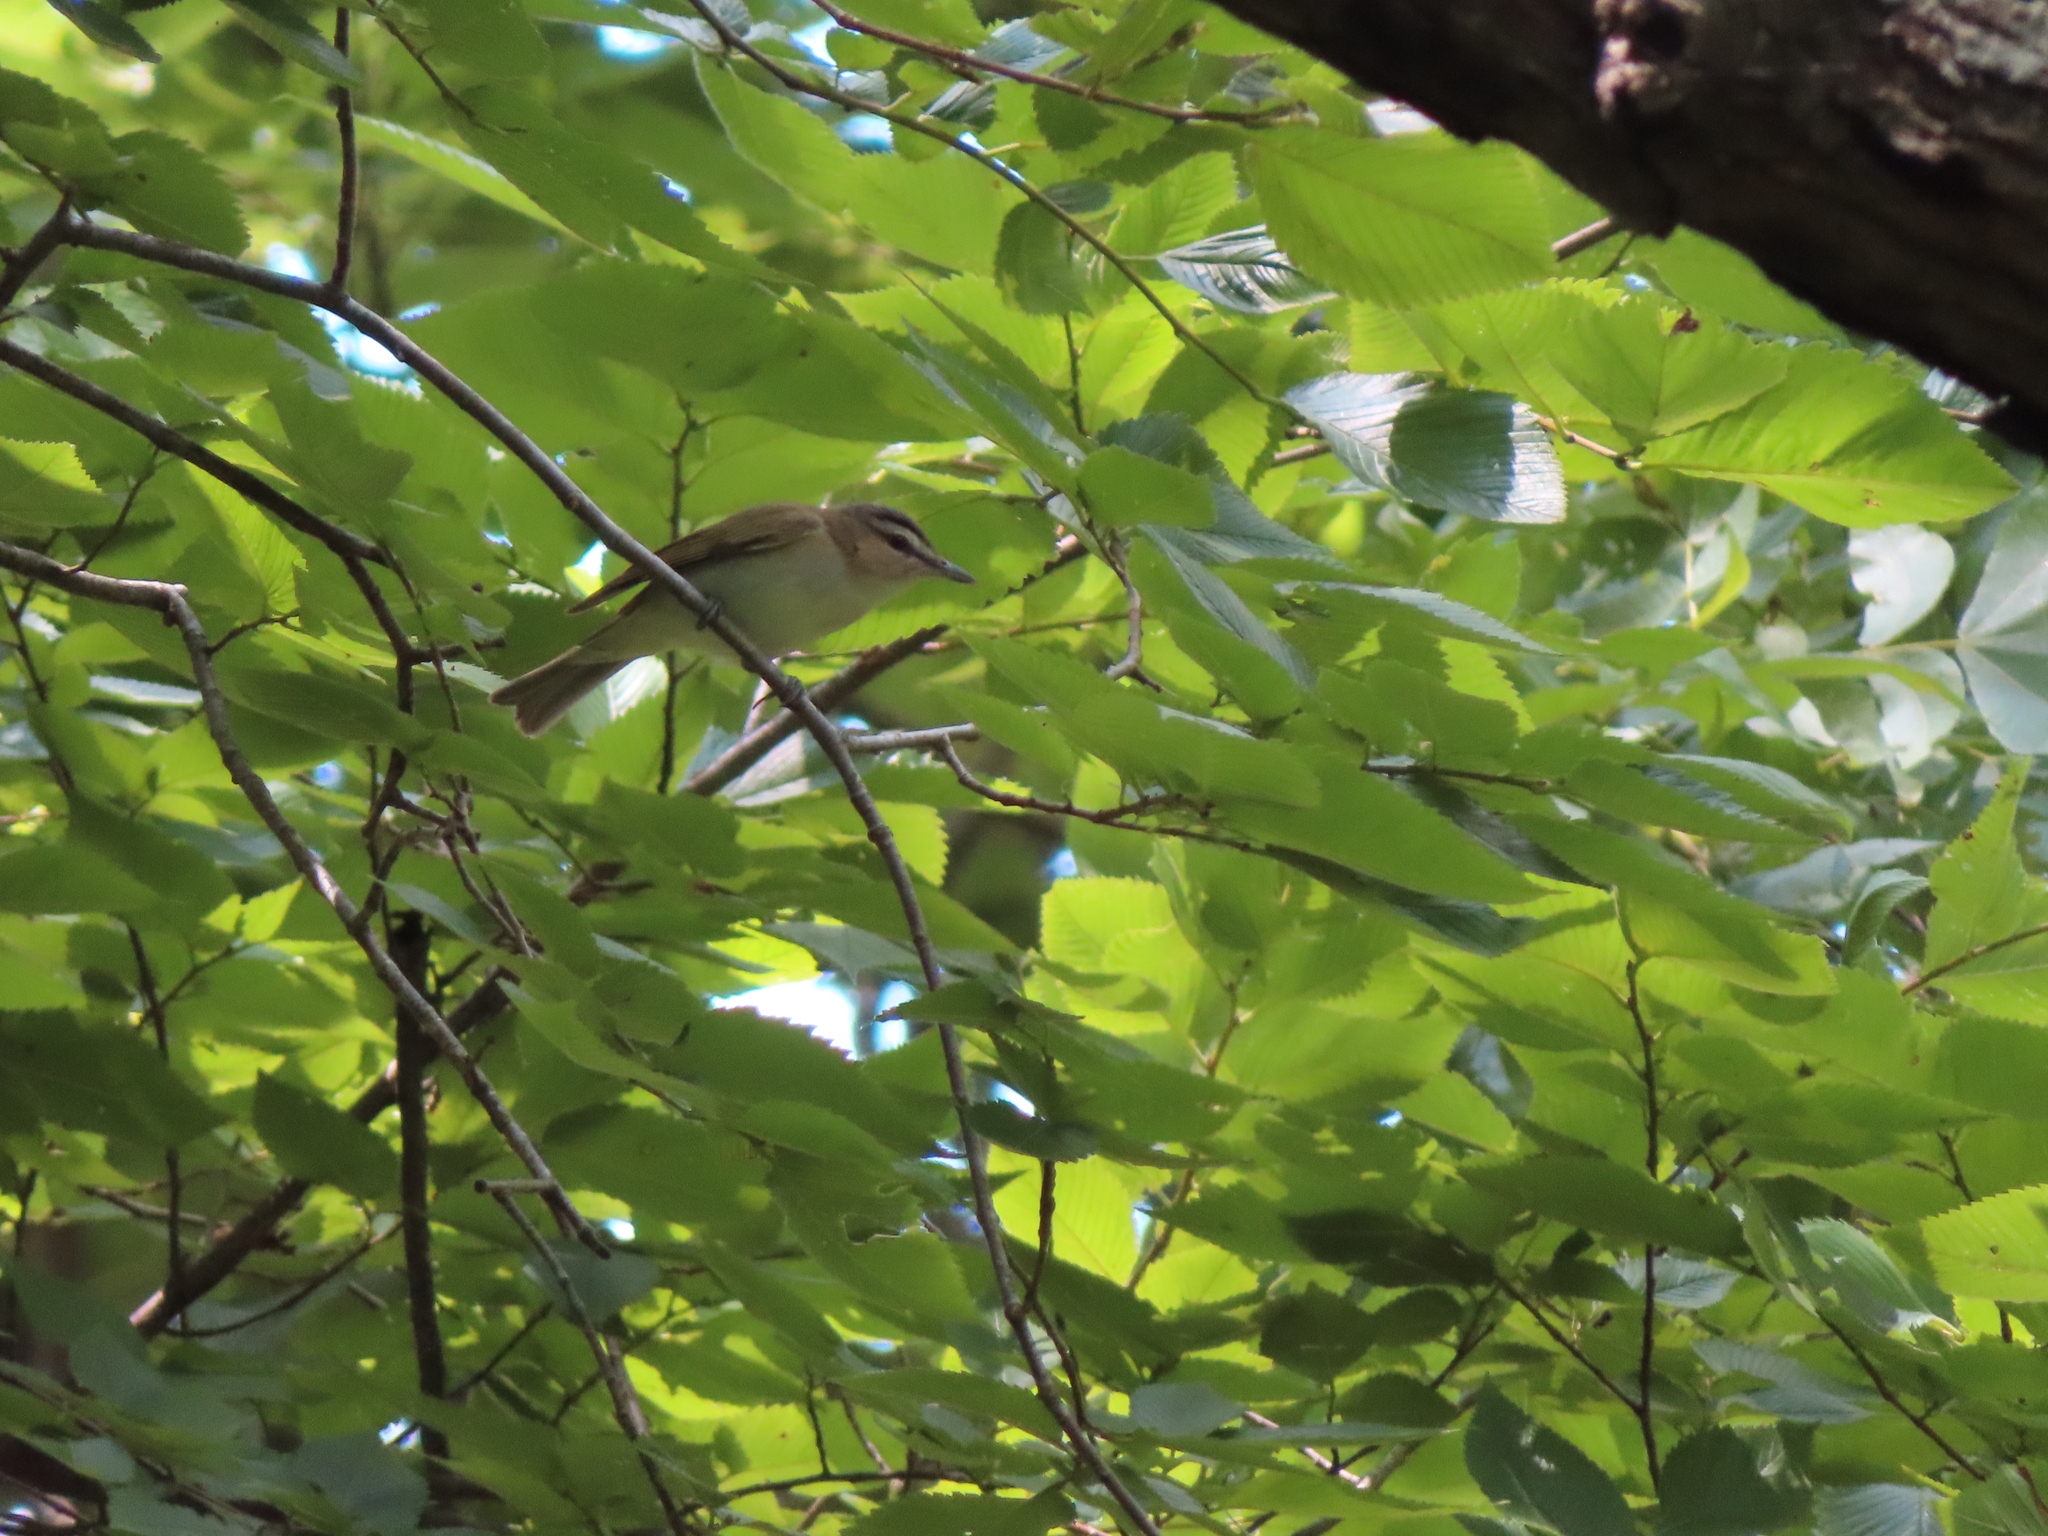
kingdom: Animalia
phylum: Chordata
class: Aves
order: Passeriformes
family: Vireonidae
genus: Vireo
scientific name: Vireo olivaceus
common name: Red-eyed vireo
